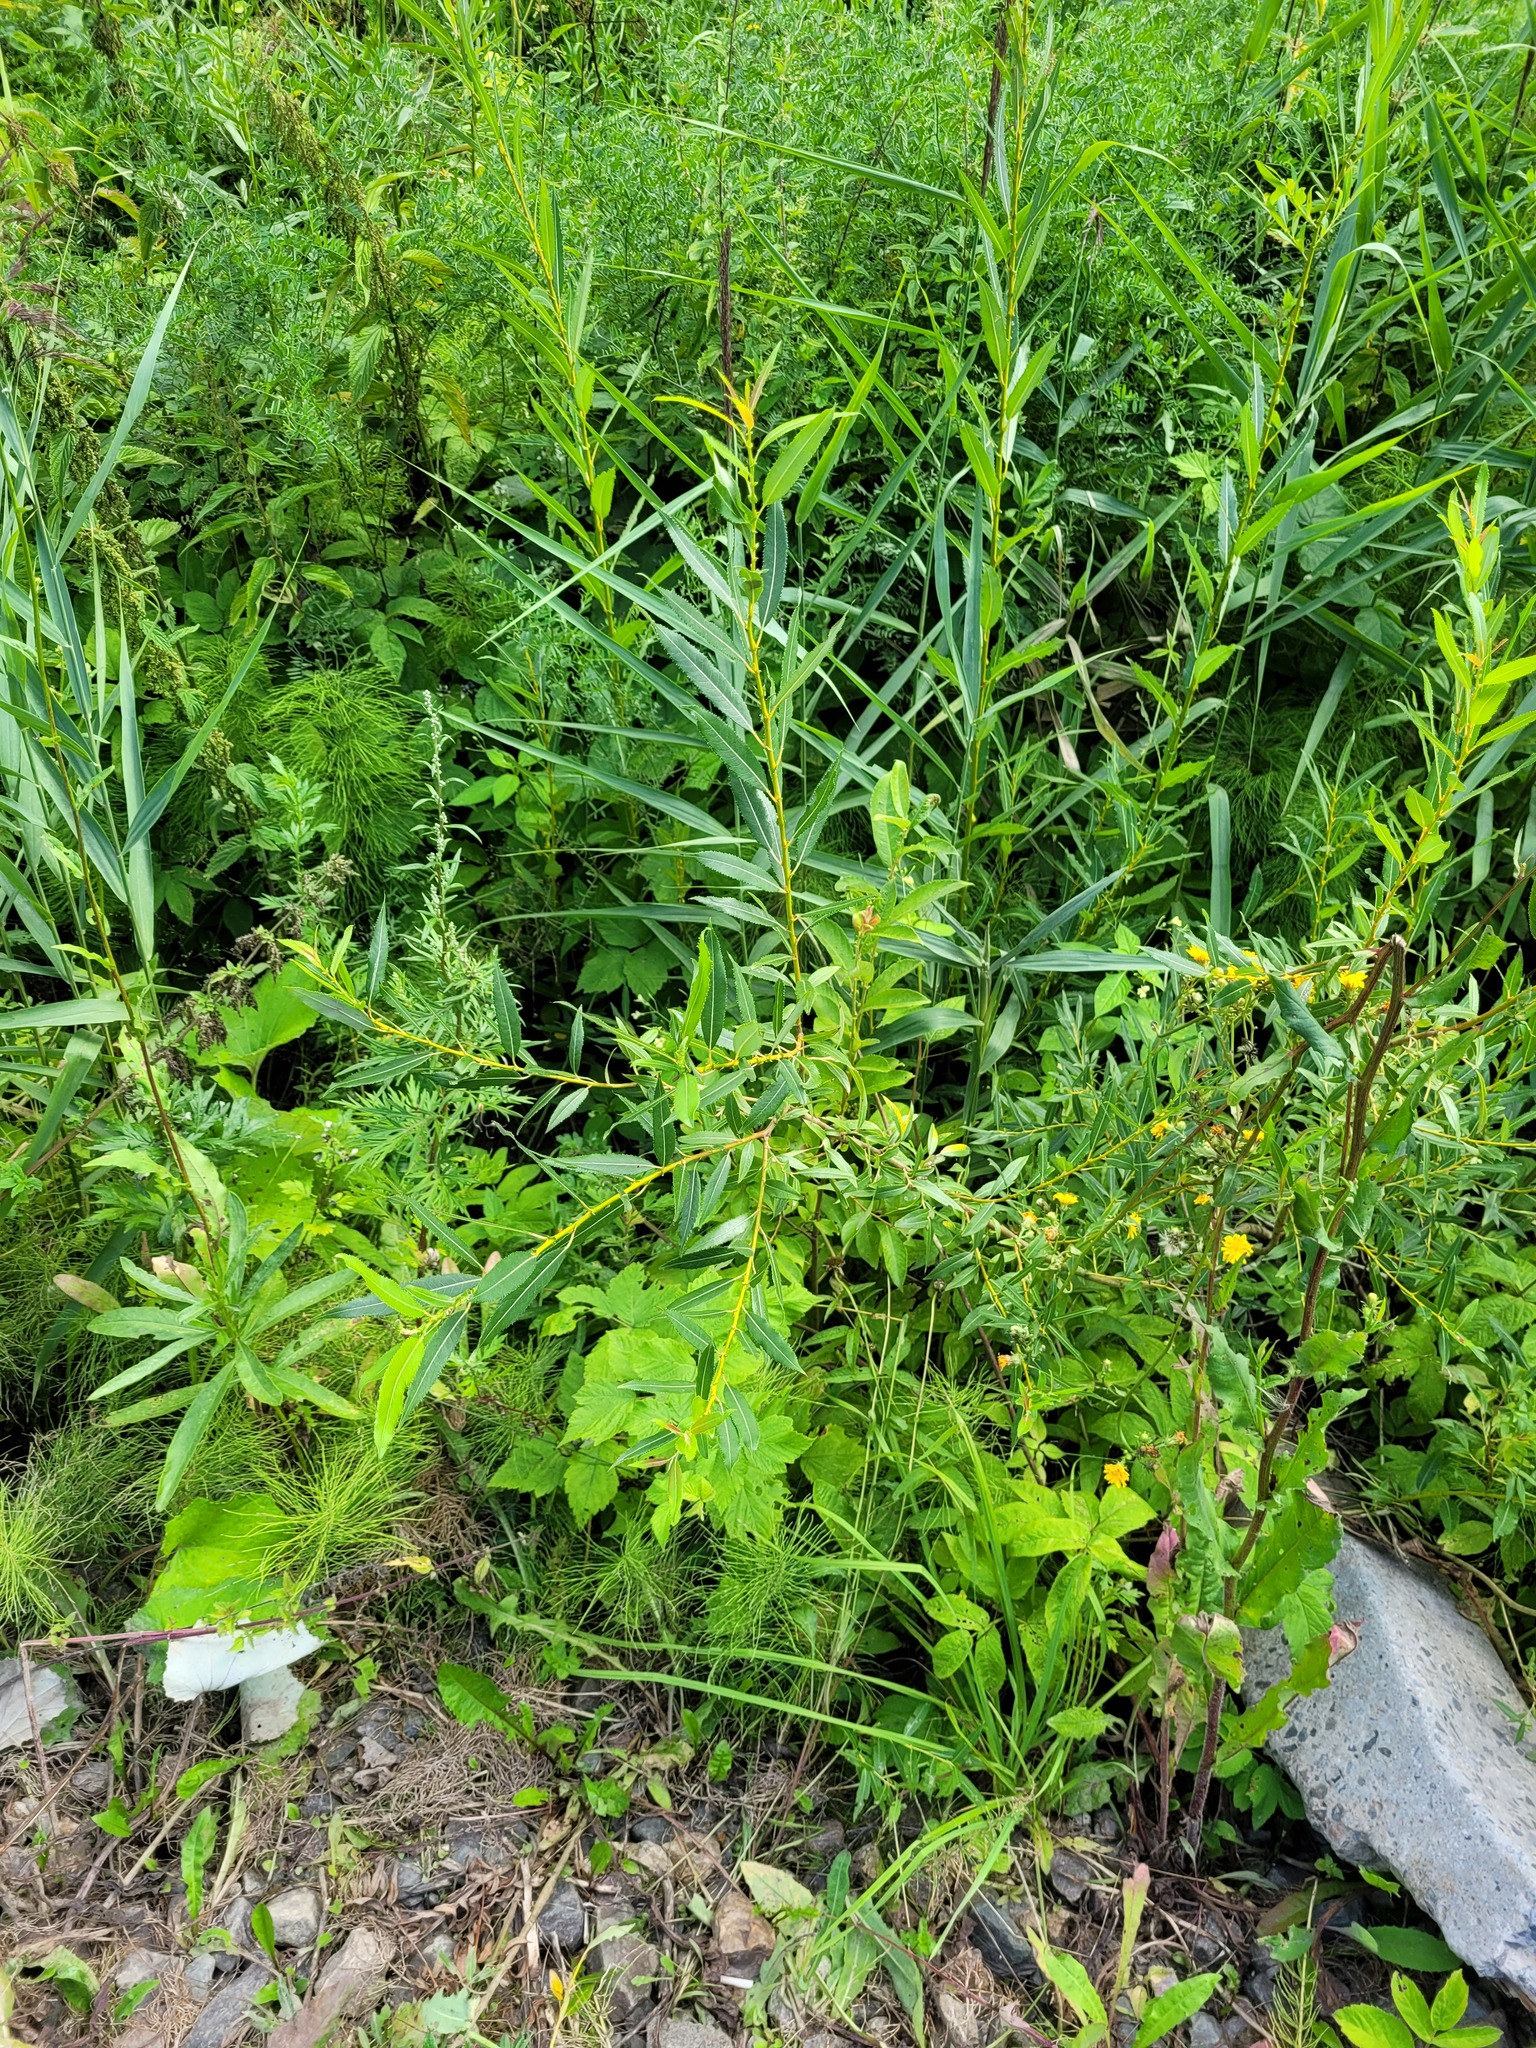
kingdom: Plantae
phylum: Tracheophyta
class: Magnoliopsida
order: Malpighiales
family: Salicaceae
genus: Salix
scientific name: Salix triandra
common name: Almond willow
